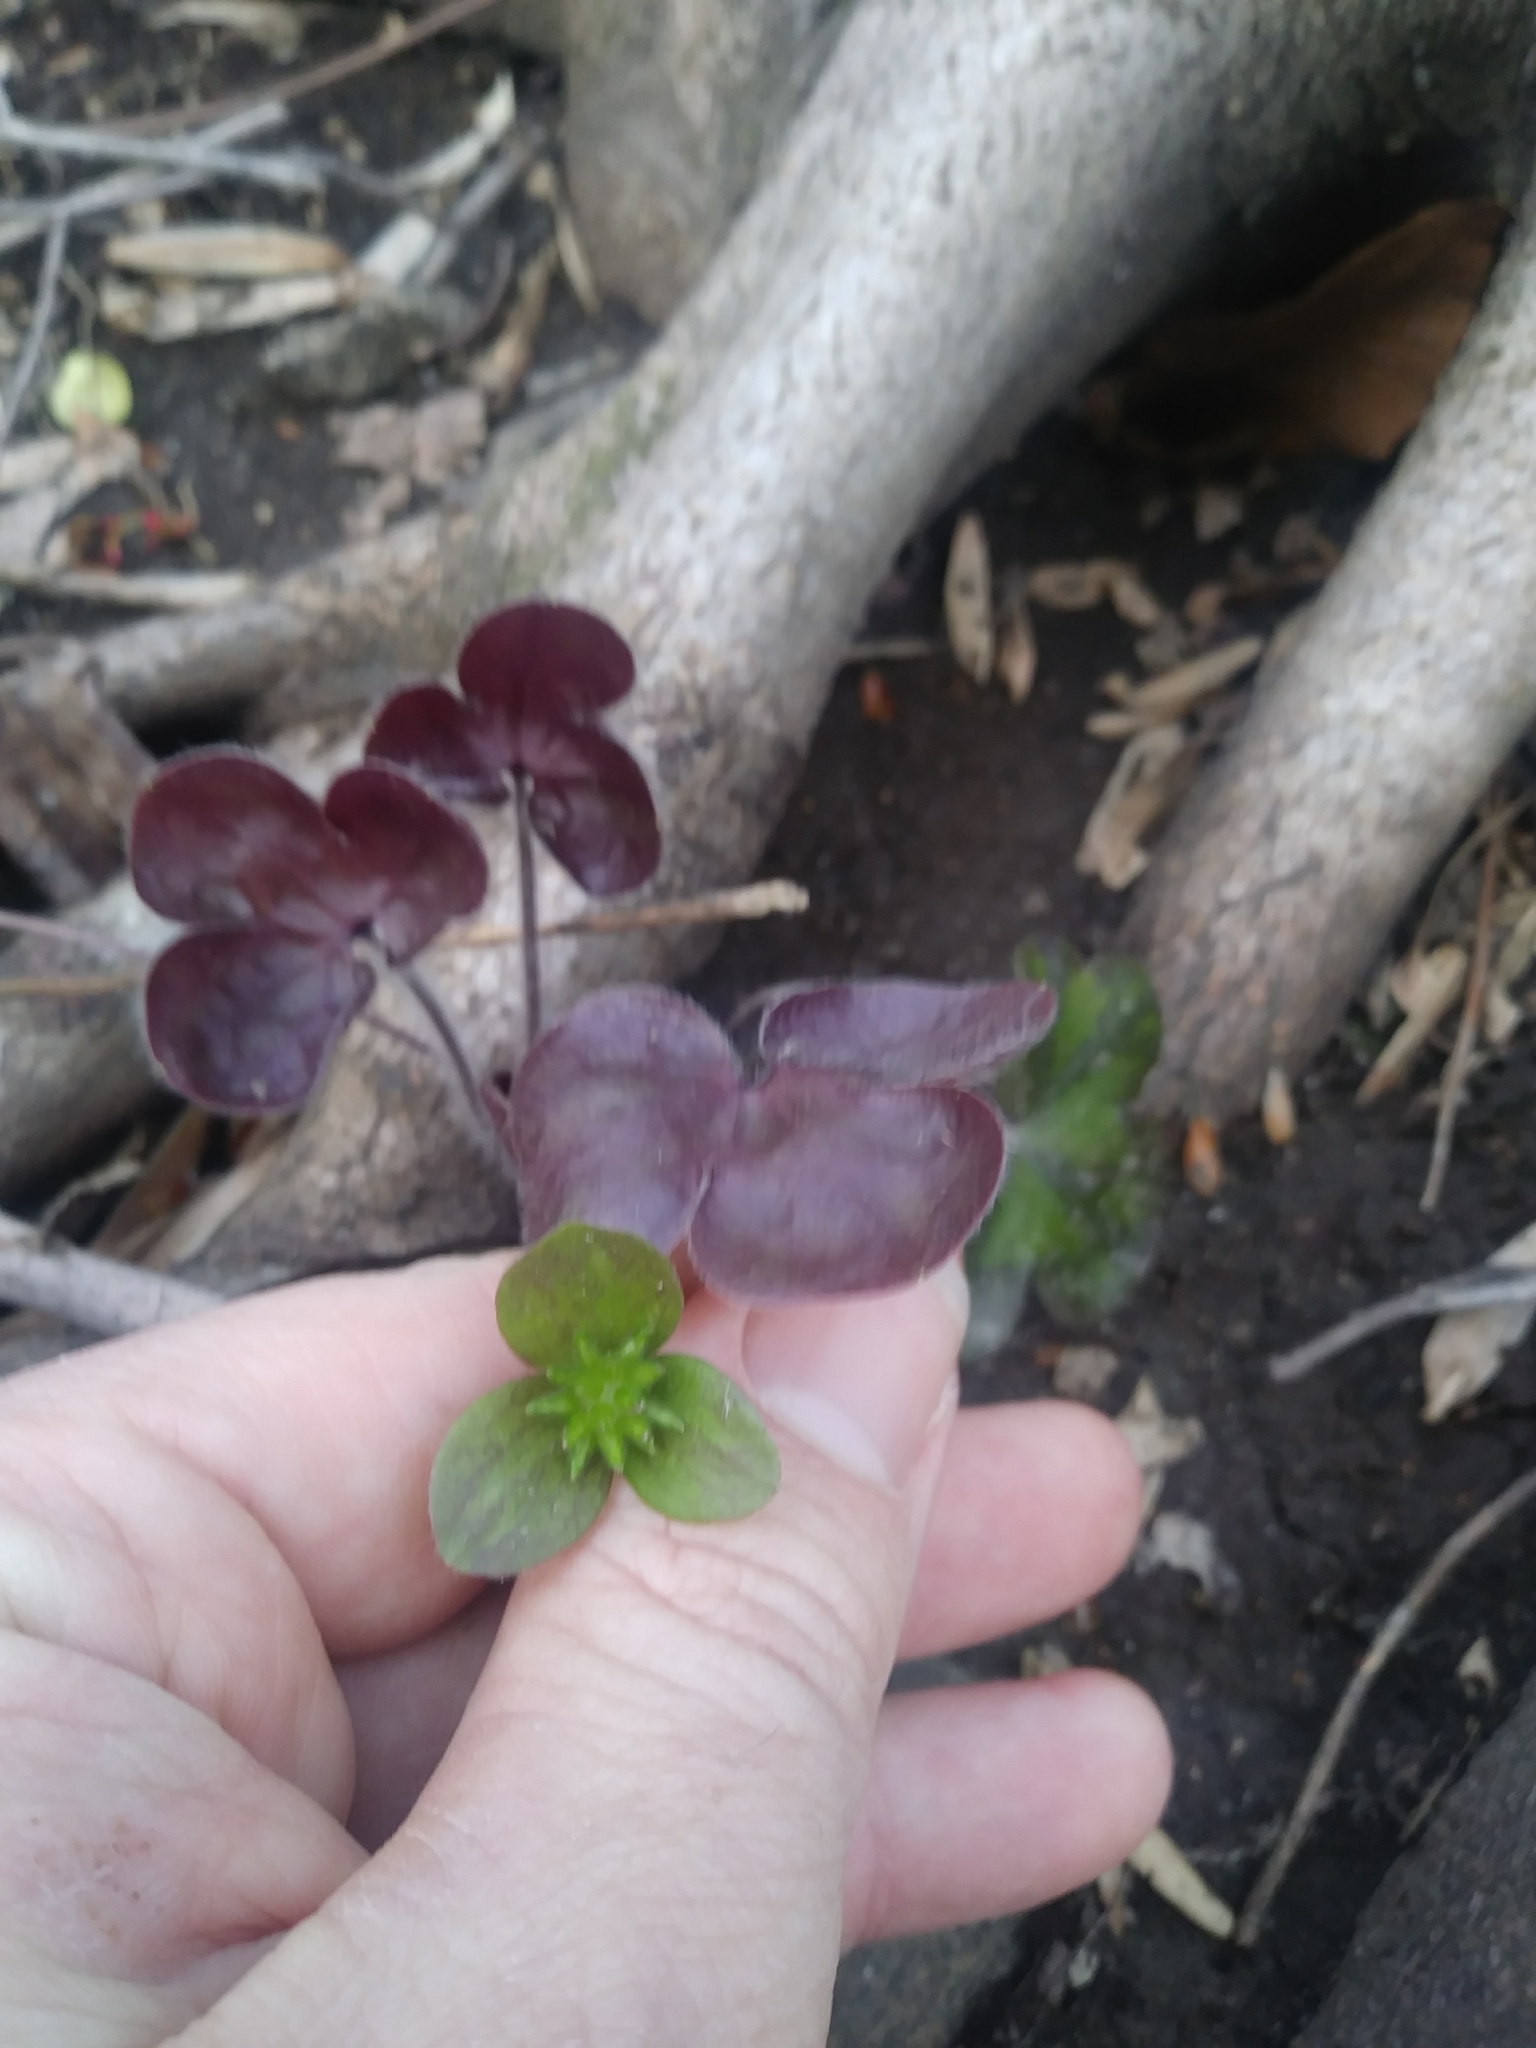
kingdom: Plantae
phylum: Tracheophyta
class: Magnoliopsida
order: Ranunculales
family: Ranunculaceae
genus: Hepatica
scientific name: Hepatica americana
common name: American hepatica
